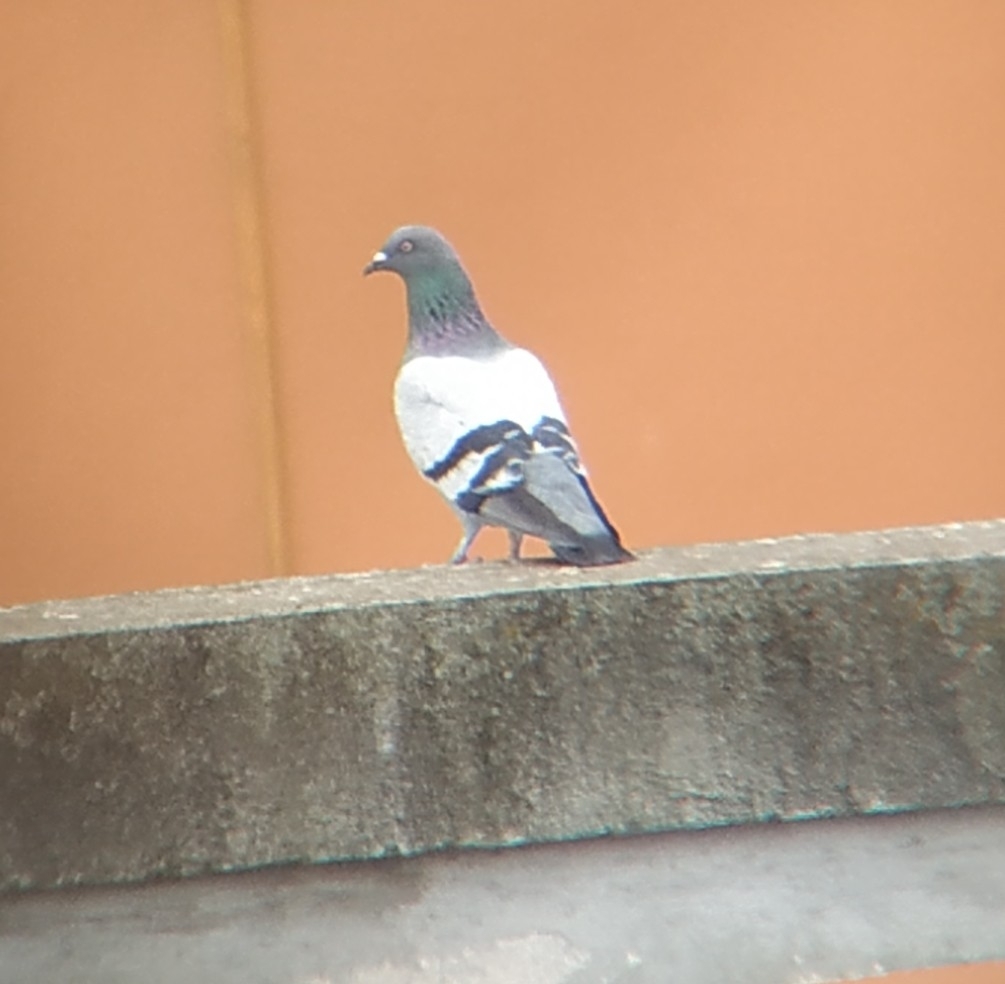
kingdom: Animalia
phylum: Chordata
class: Aves
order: Columbiformes
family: Columbidae
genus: Columba
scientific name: Columba livia
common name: Rock pigeon
